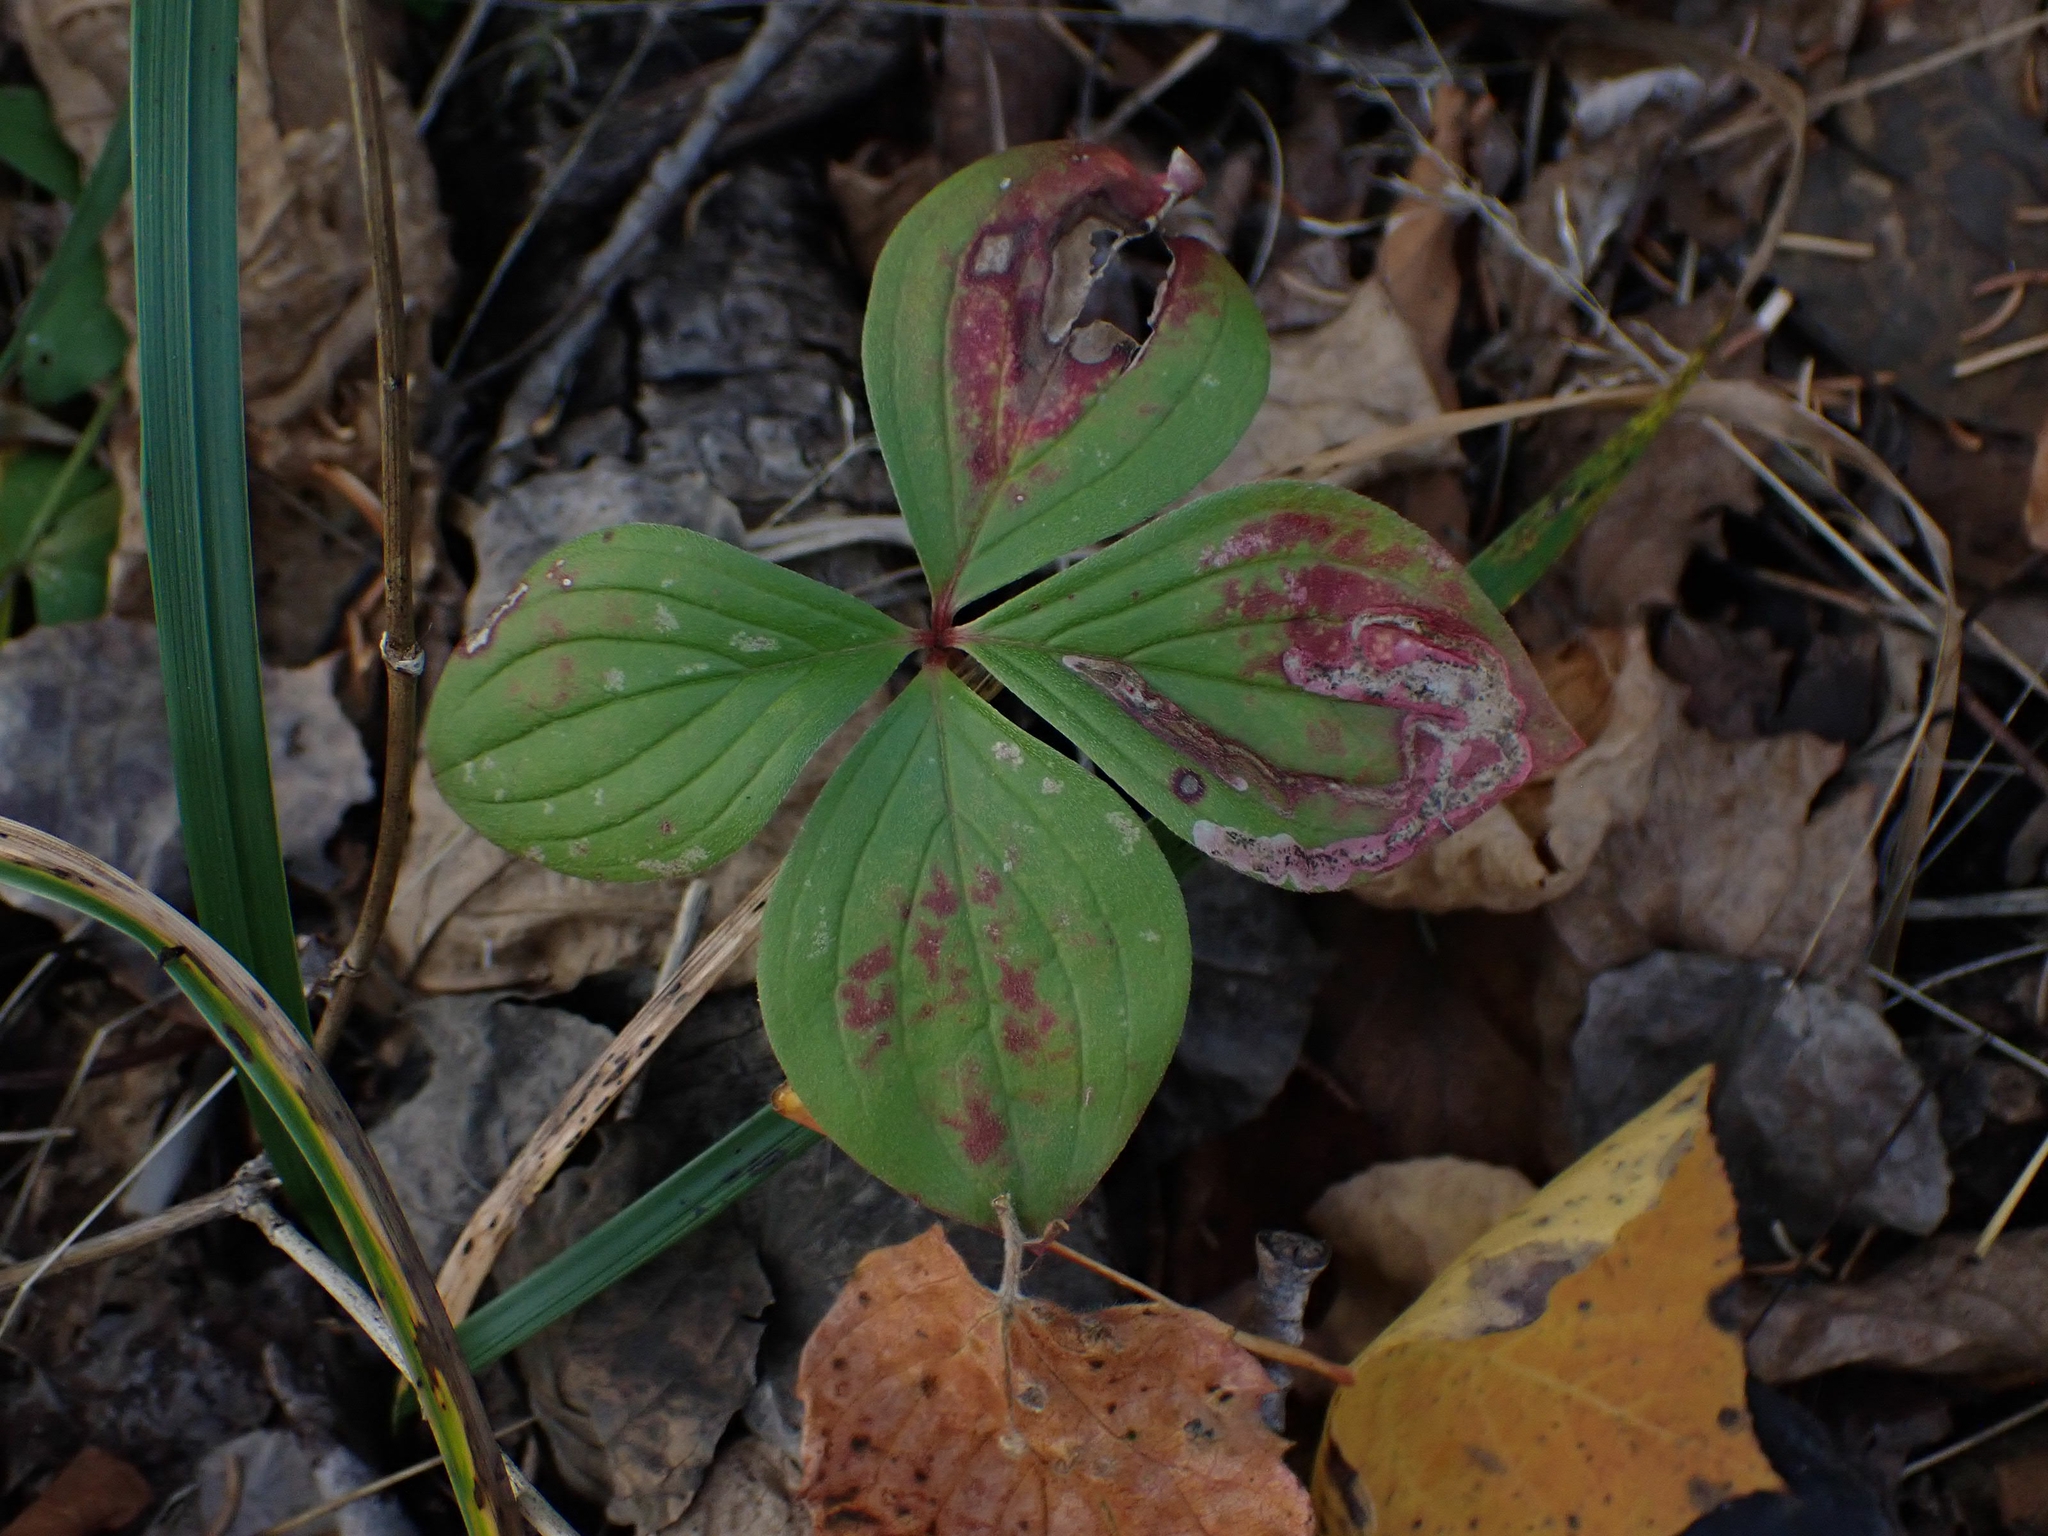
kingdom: Plantae
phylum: Tracheophyta
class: Magnoliopsida
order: Cornales
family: Cornaceae
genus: Cornus
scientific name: Cornus canadensis
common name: Creeping dogwood
